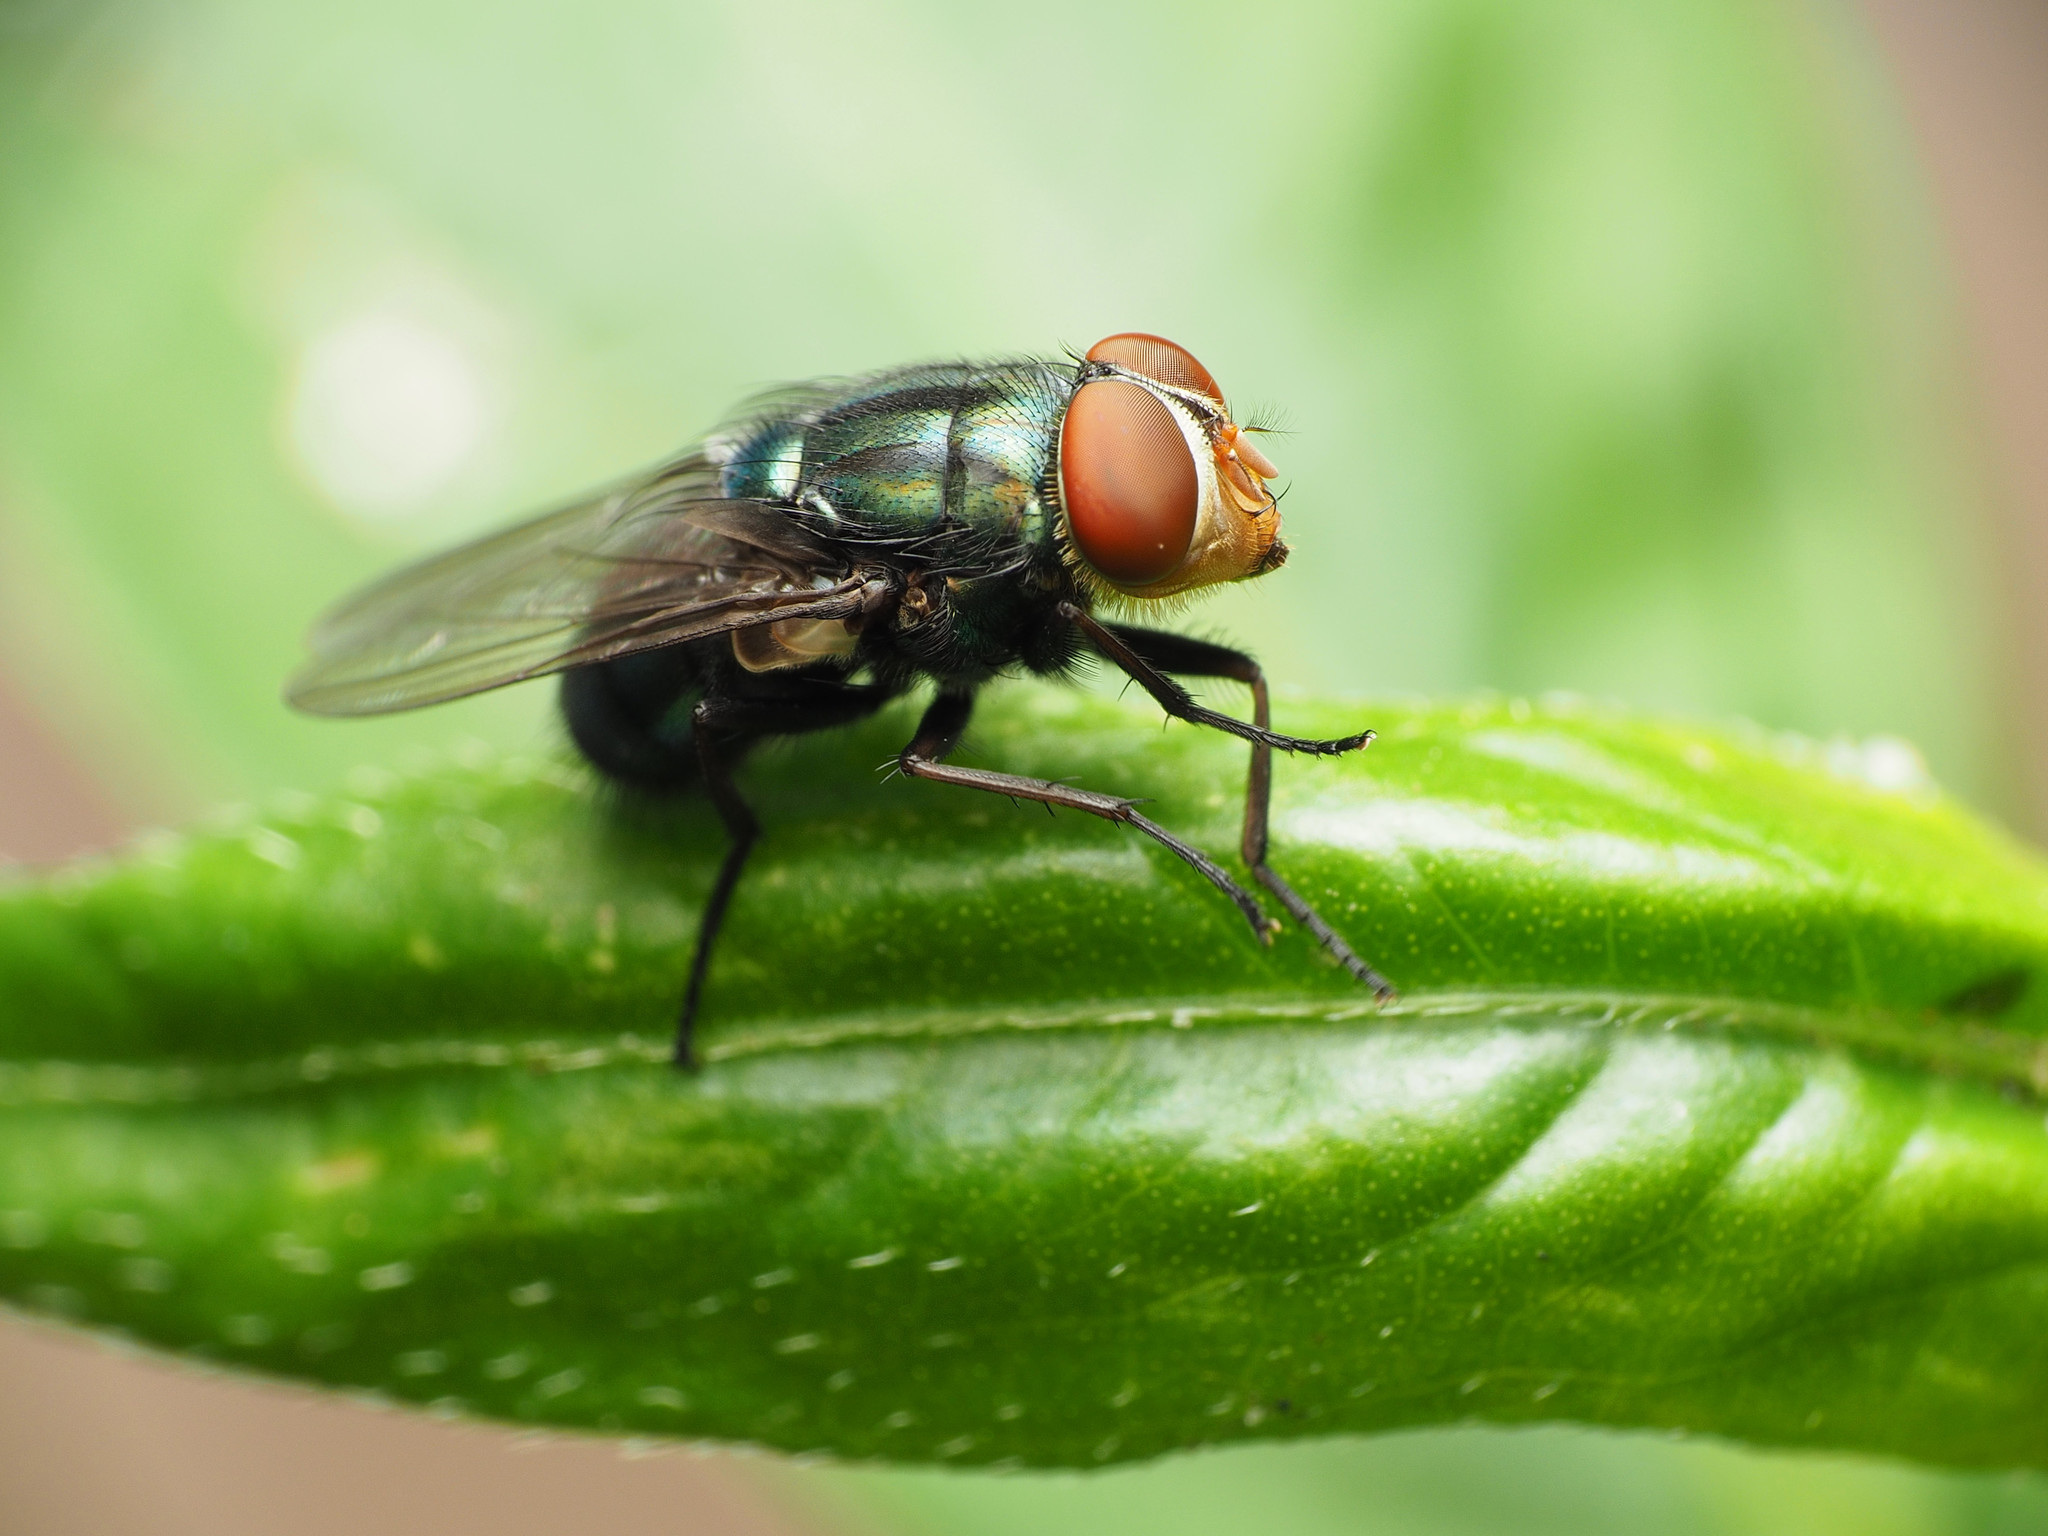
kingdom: Animalia
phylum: Arthropoda
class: Insecta
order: Diptera
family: Calliphoridae
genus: Cochliomyia
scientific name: Cochliomyia macellaria
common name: Secondary screwworm
